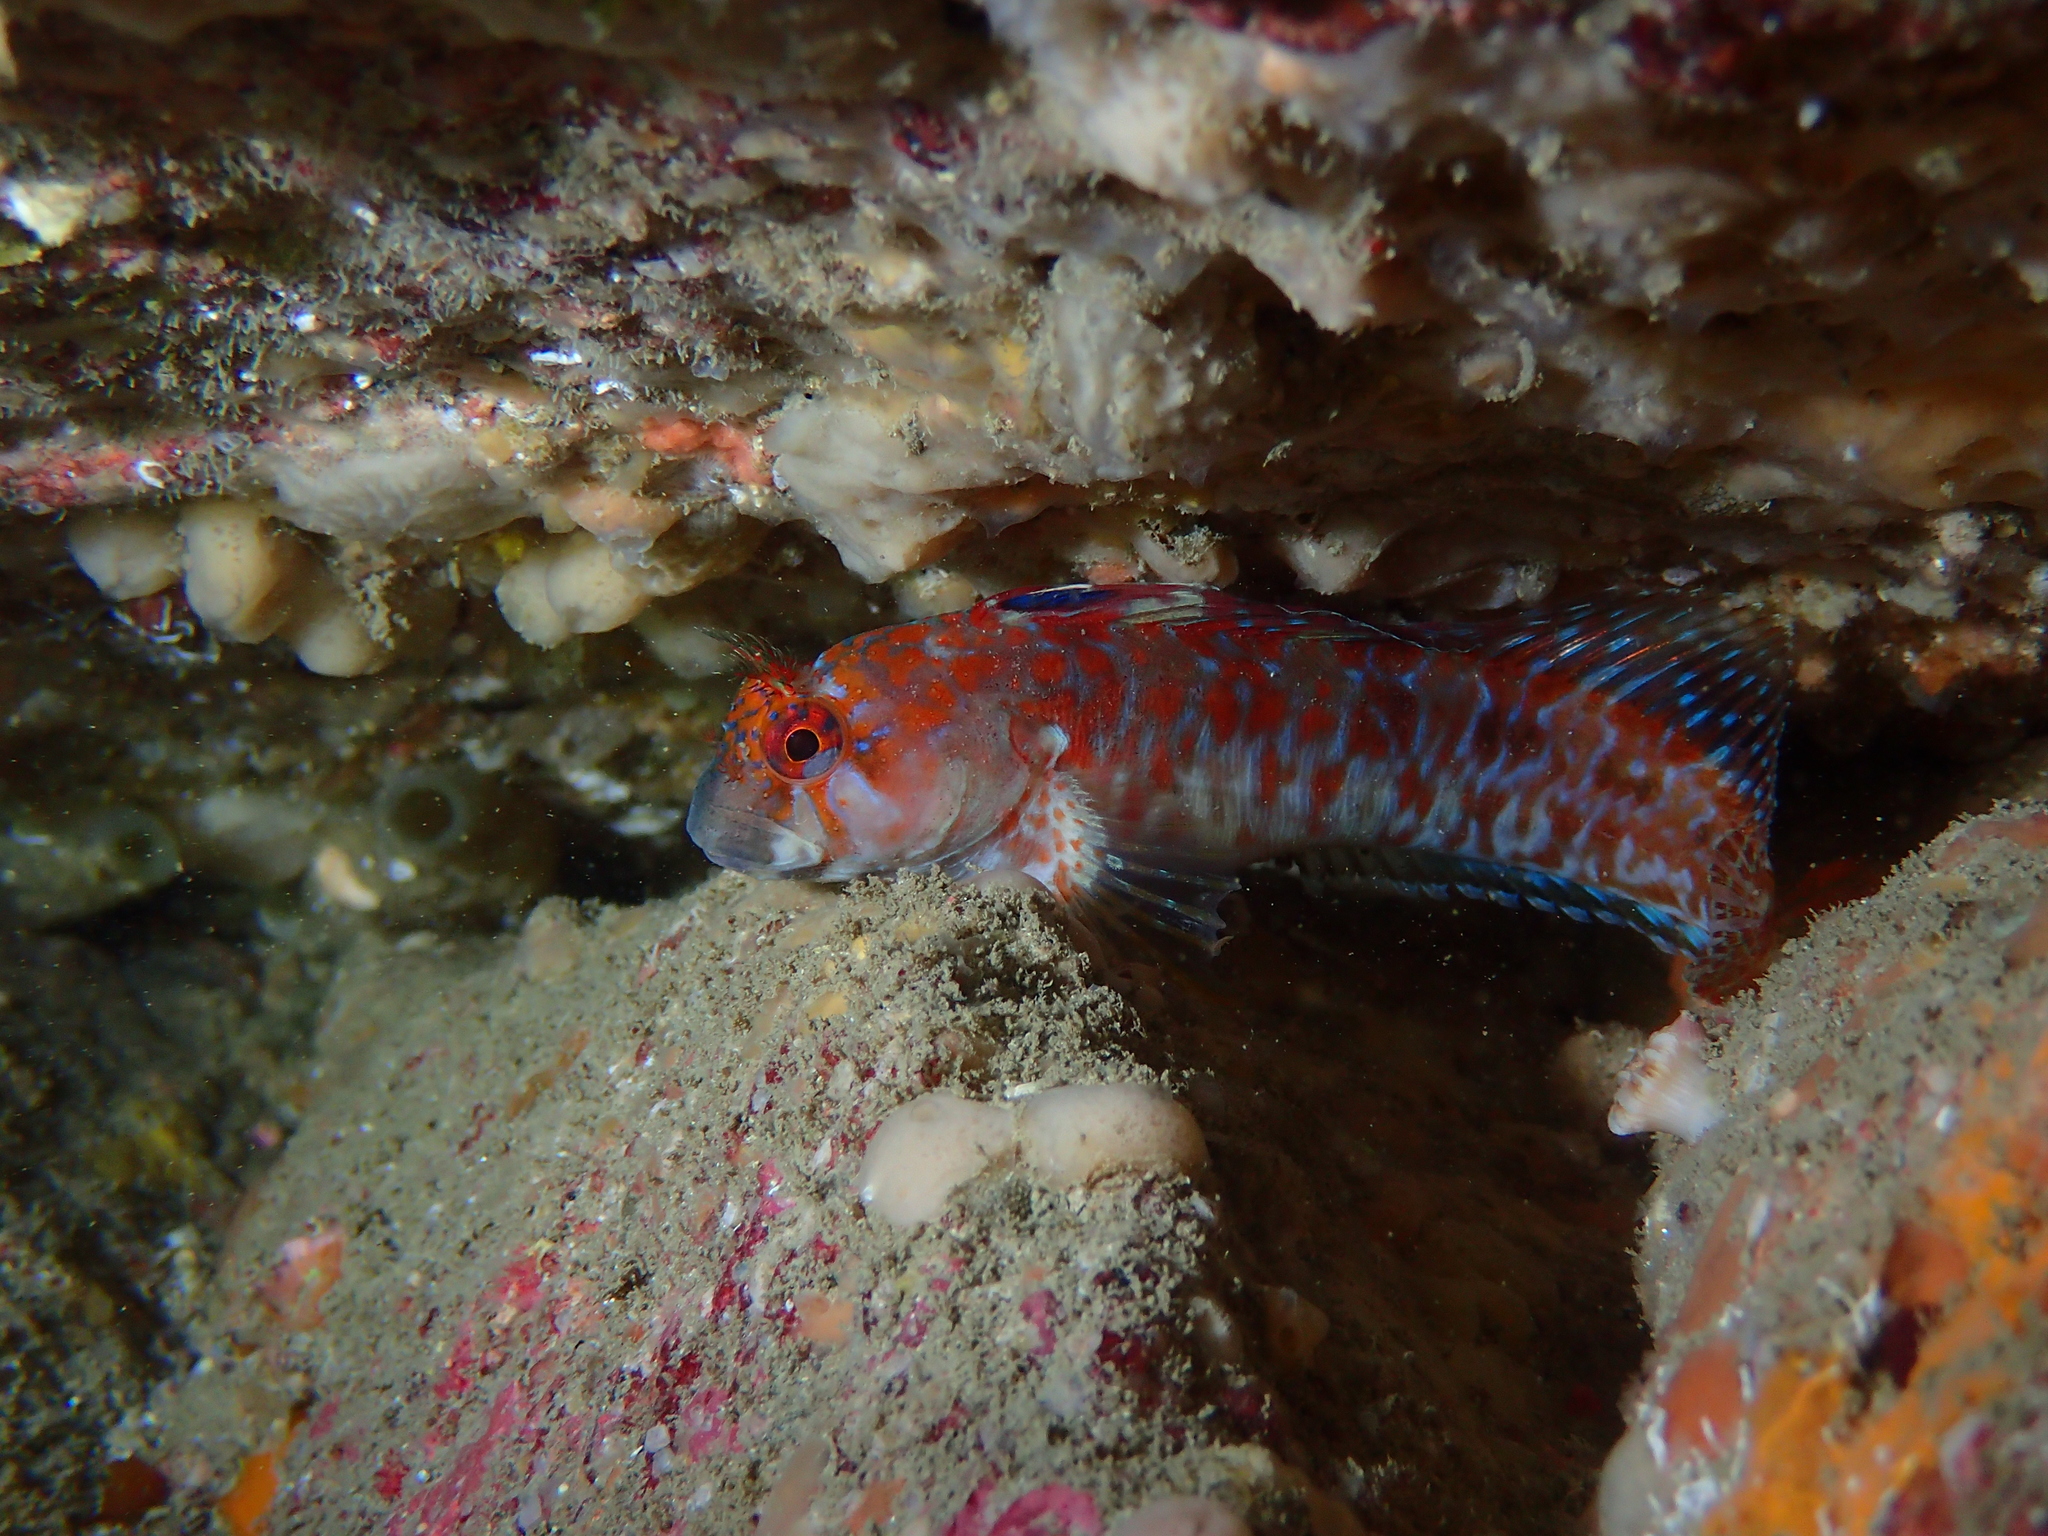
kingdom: Animalia
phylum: Chordata
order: Perciformes
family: Blenniidae
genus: Parablennius
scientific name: Parablennius ruber
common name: Portuguese blenny
